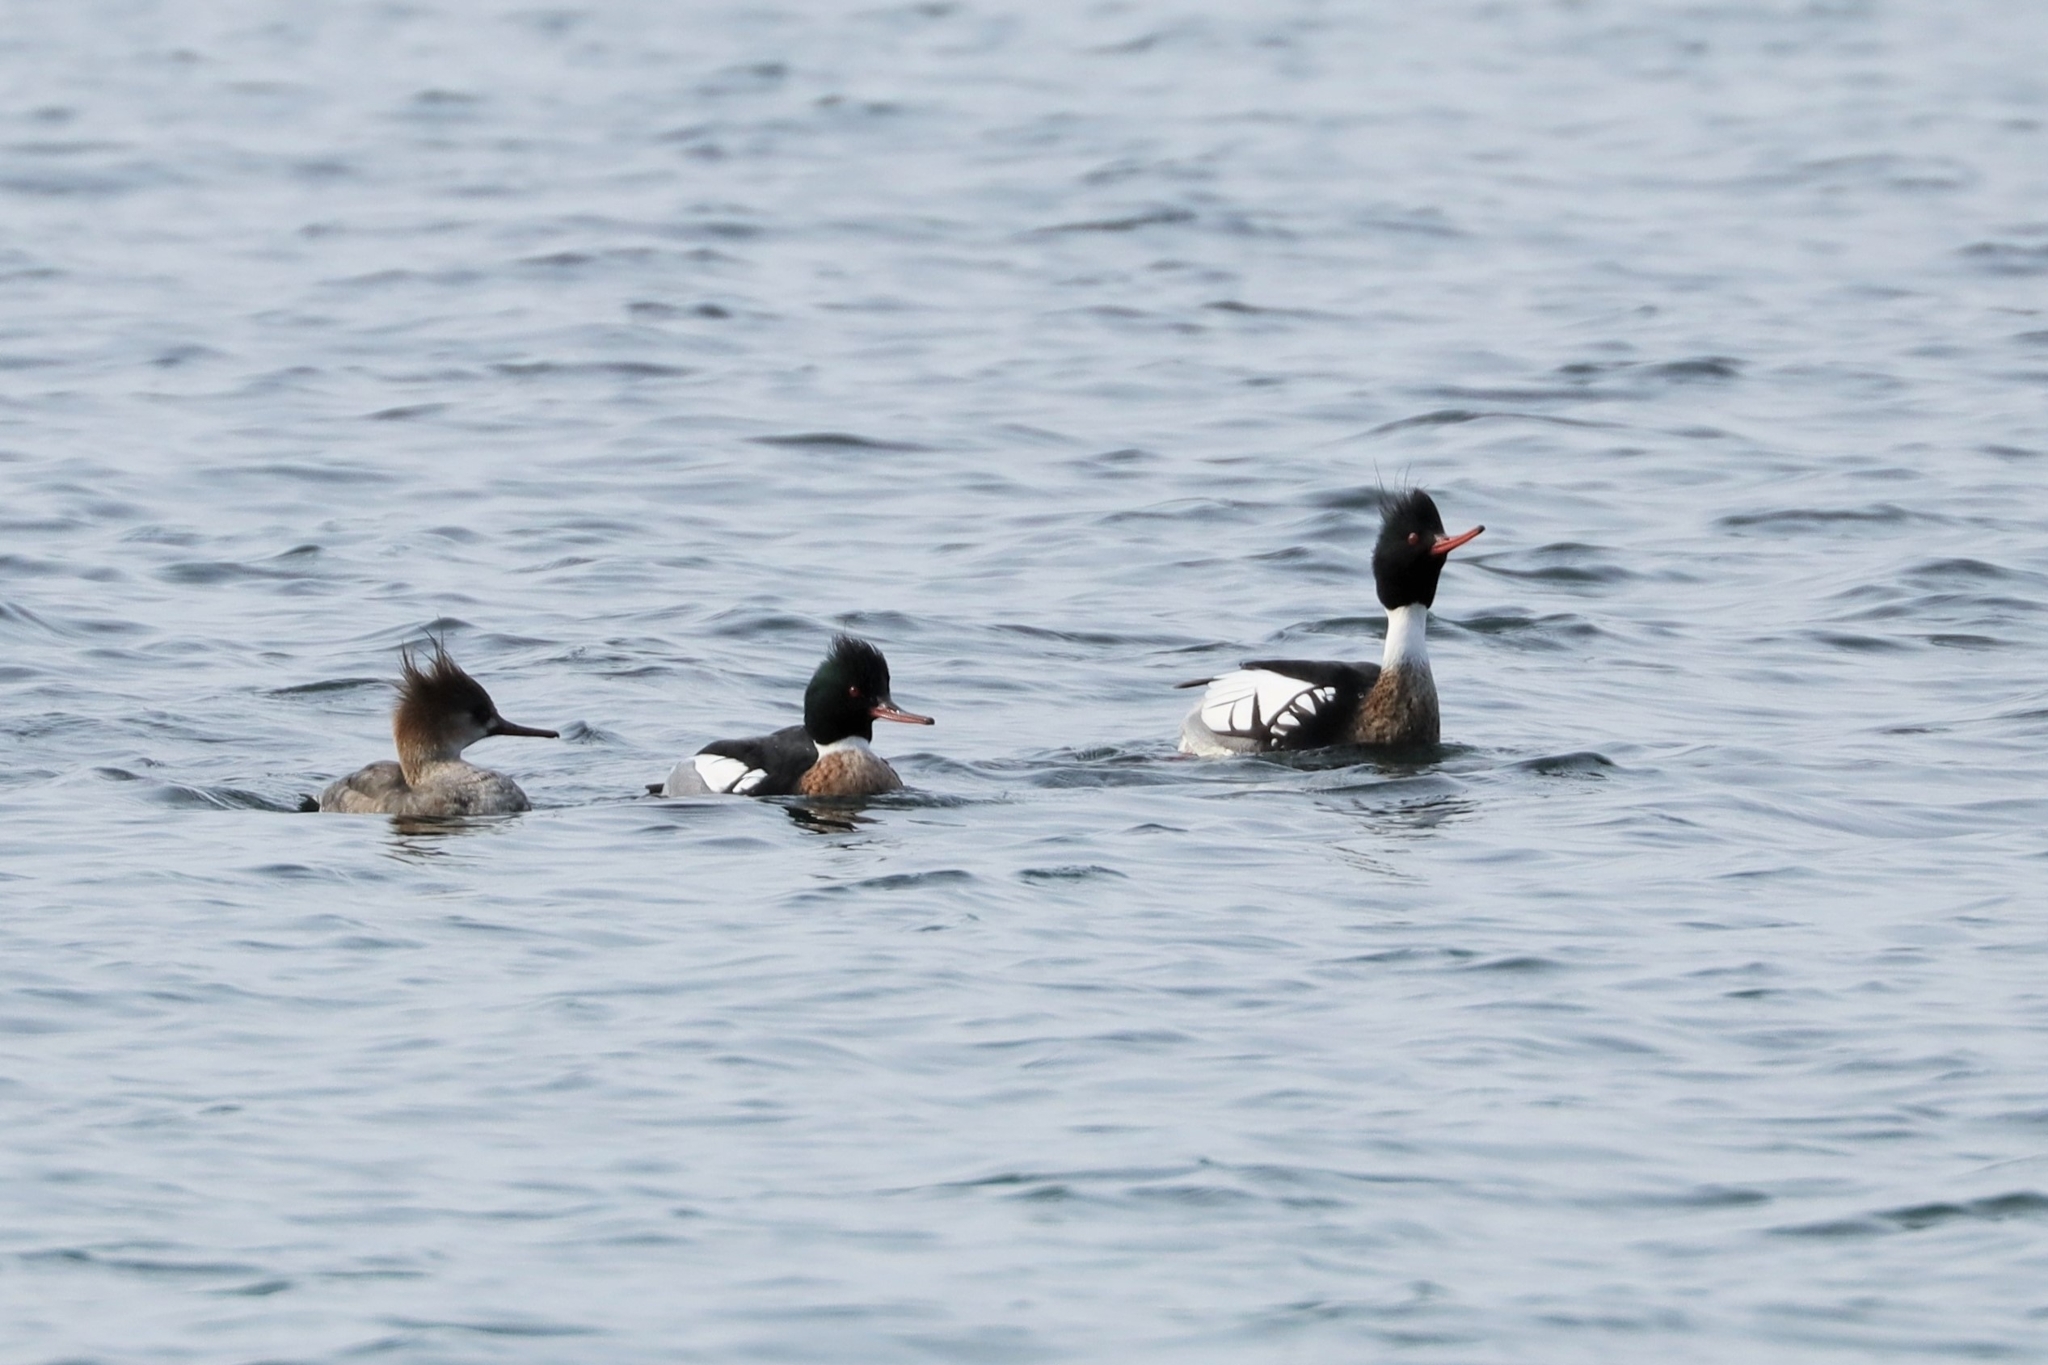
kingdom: Animalia
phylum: Chordata
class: Aves
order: Anseriformes
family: Anatidae
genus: Mergus
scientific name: Mergus serrator
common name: Red-breasted merganser
